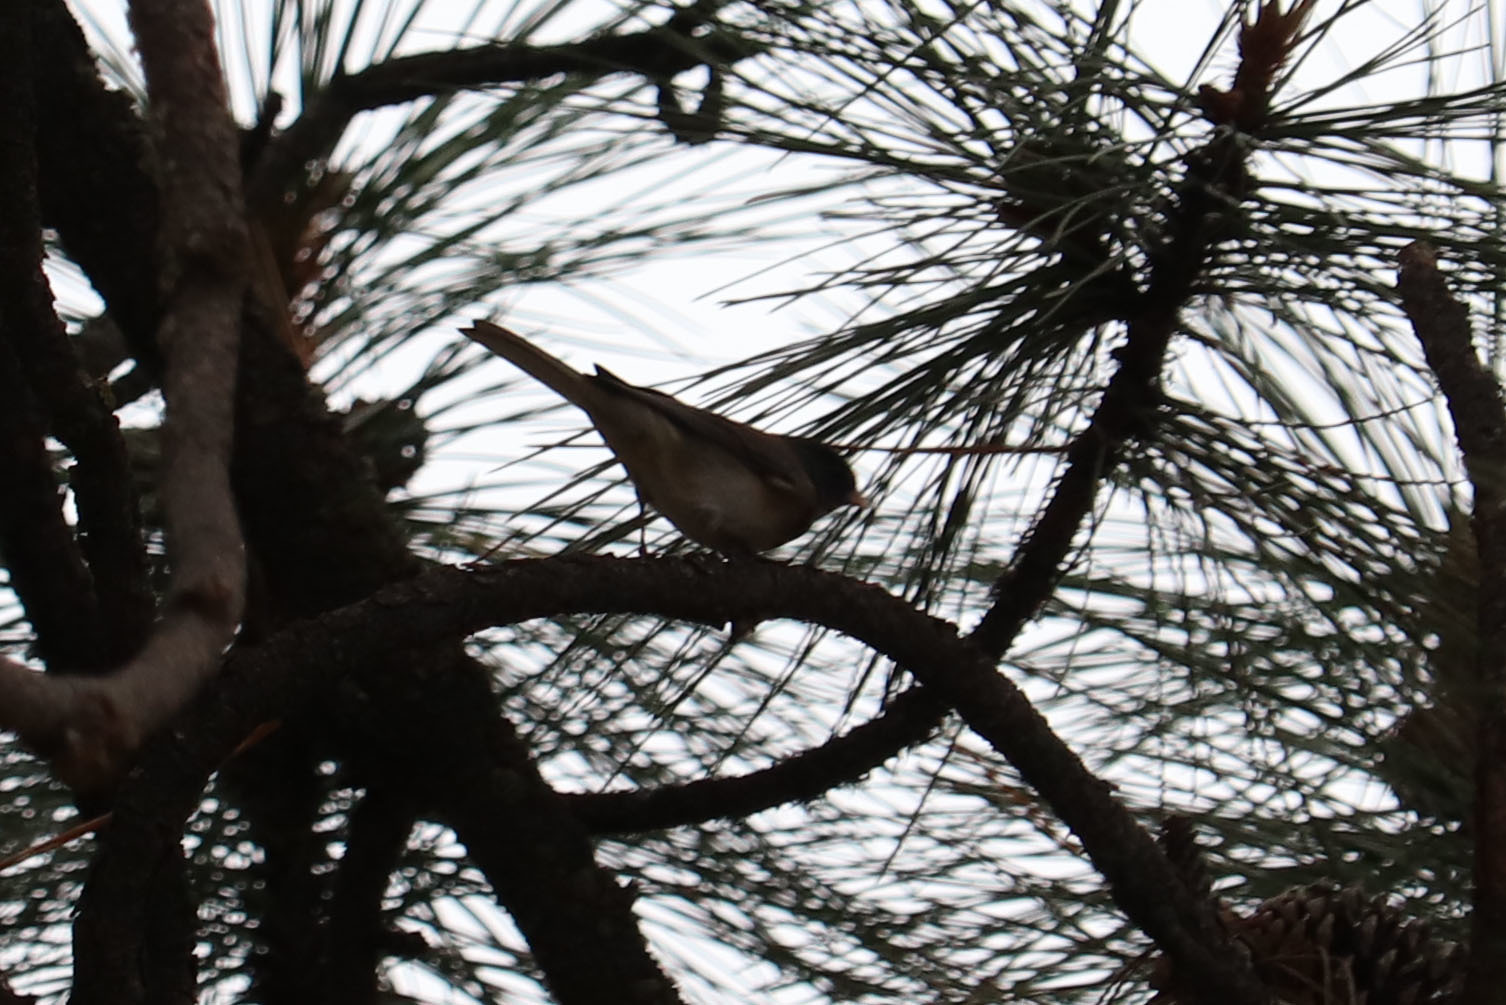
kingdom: Animalia
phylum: Chordata
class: Aves
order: Passeriformes
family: Passerellidae
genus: Junco
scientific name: Junco hyemalis
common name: Dark-eyed junco
